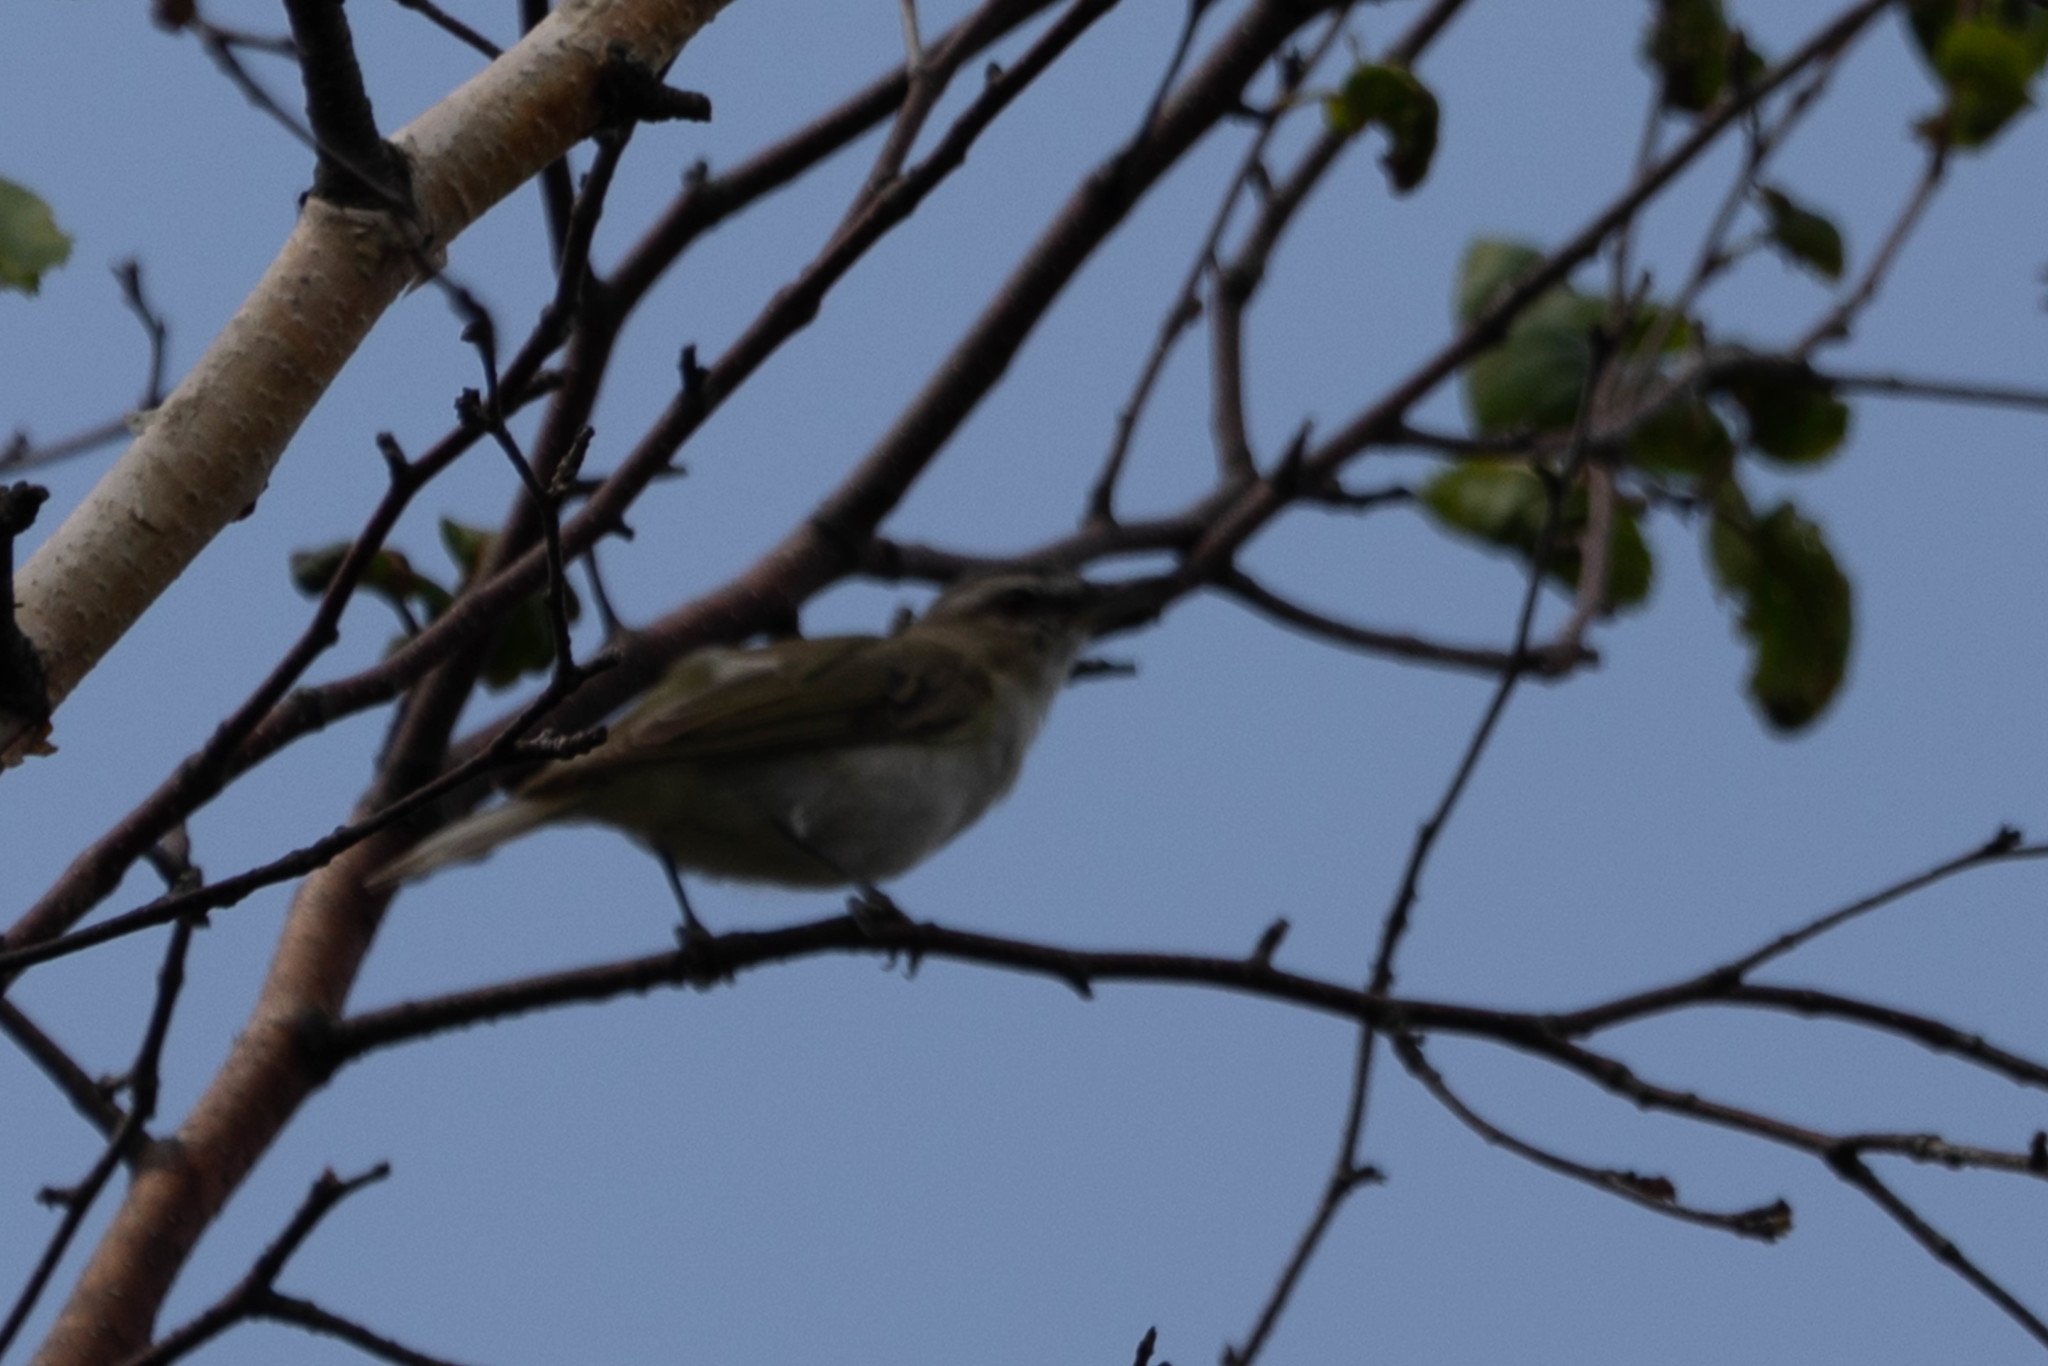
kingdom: Animalia
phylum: Chordata
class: Aves
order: Passeriformes
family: Vireonidae
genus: Vireo
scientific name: Vireo olivaceus
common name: Red-eyed vireo
